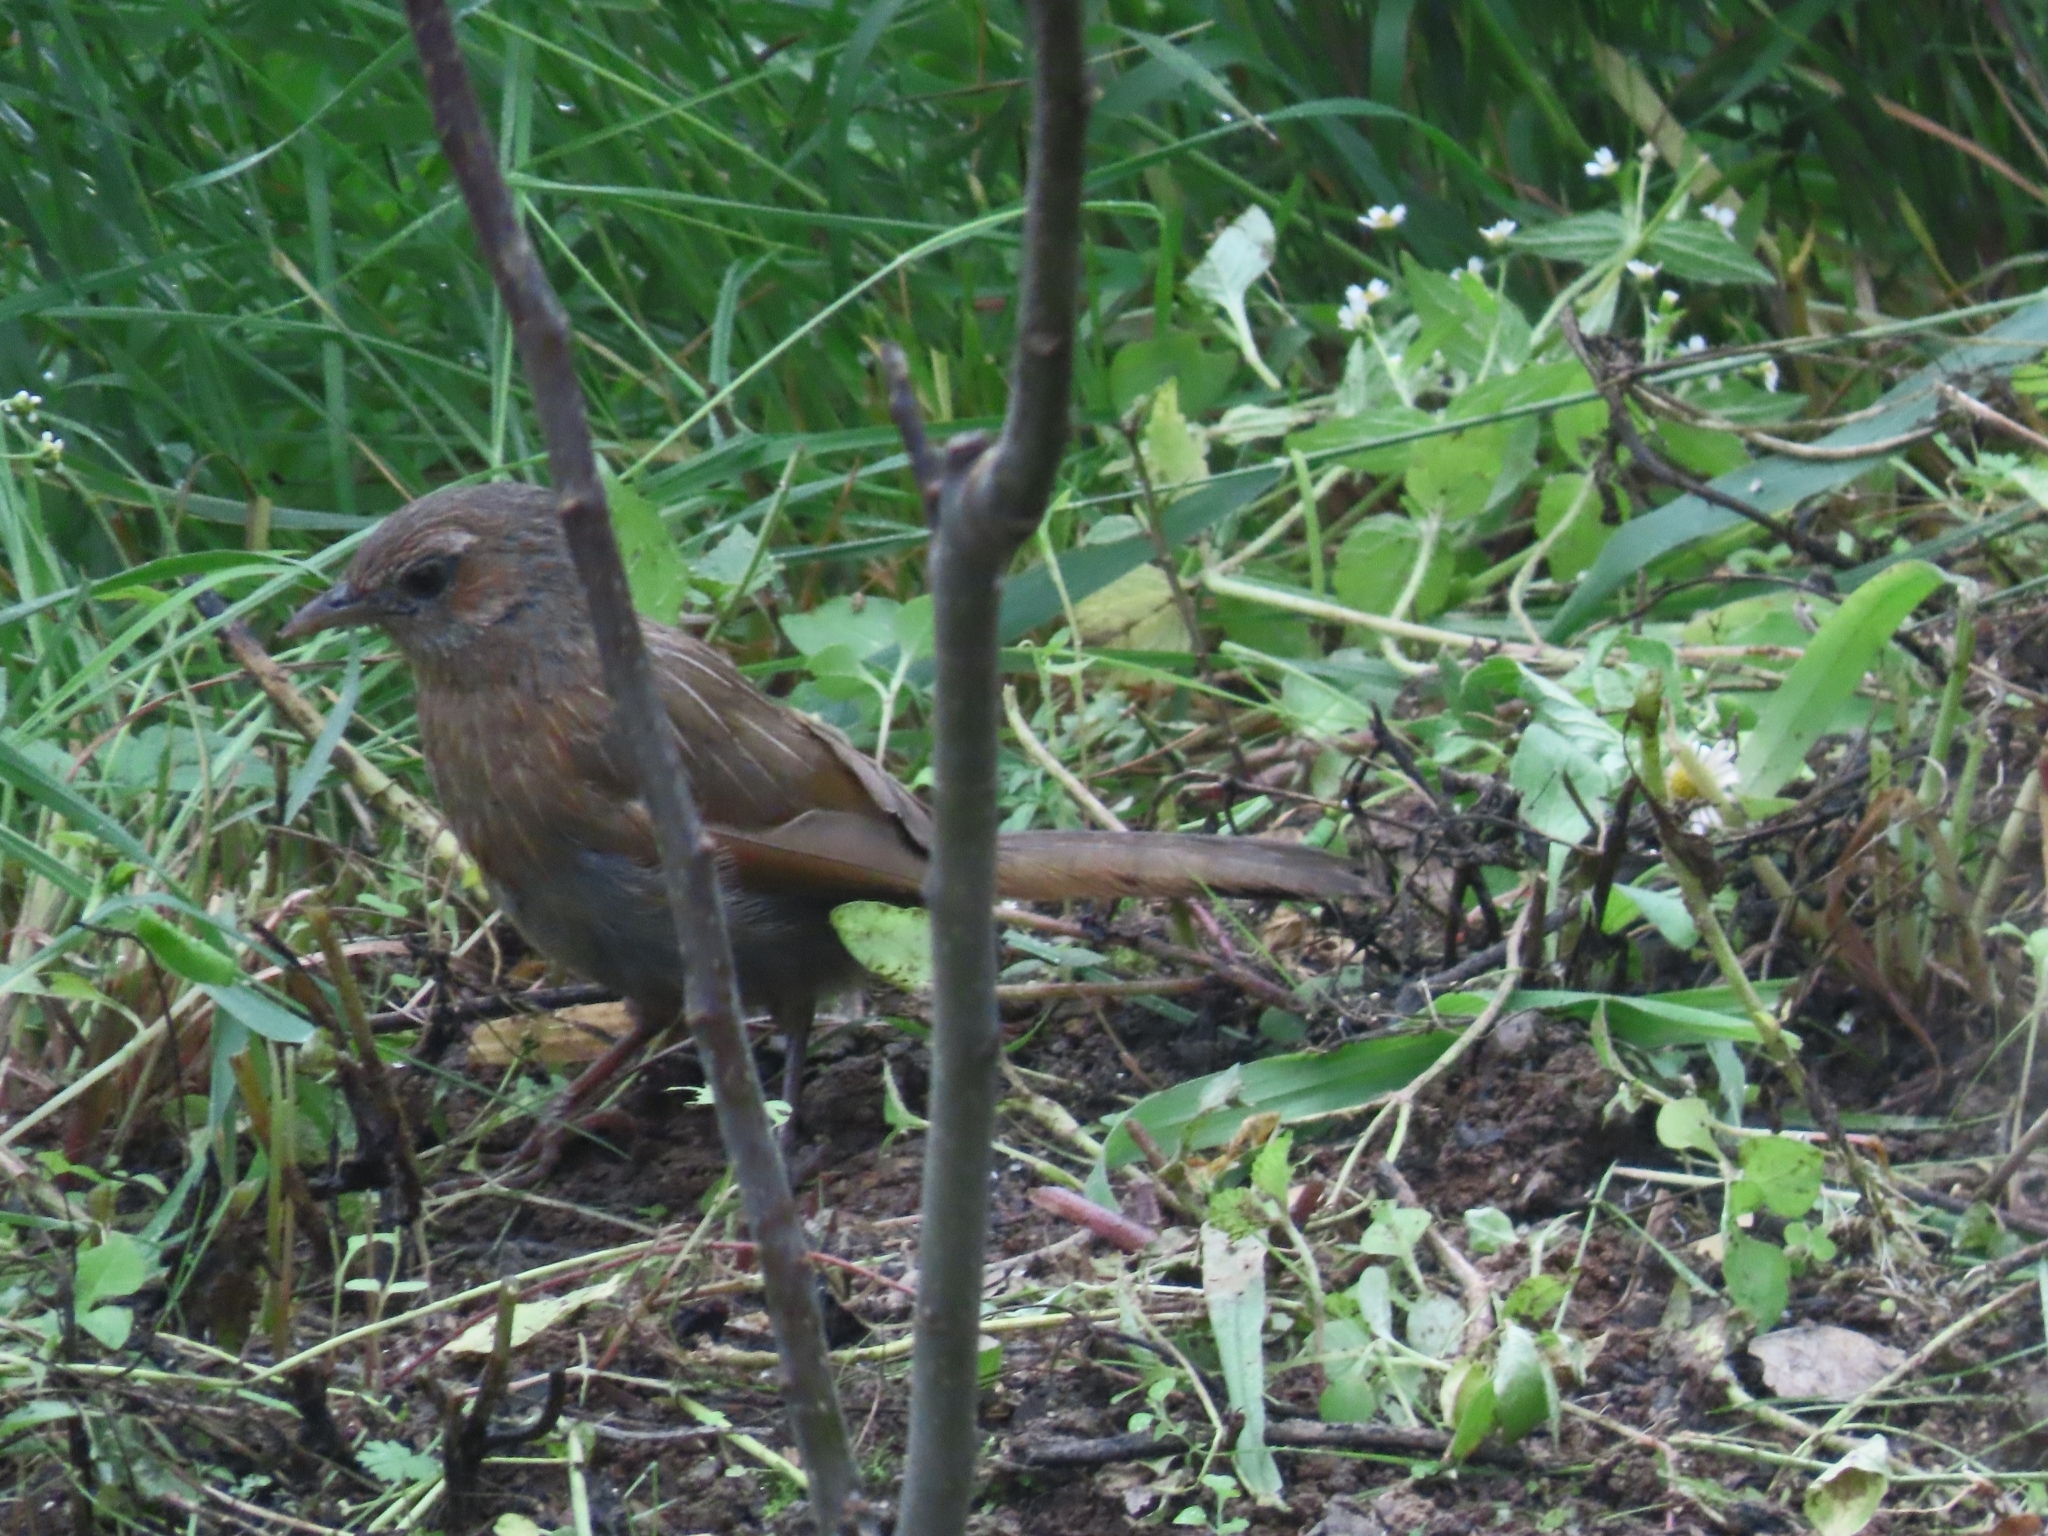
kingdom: Animalia
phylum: Chordata
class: Aves
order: Passeriformes
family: Leiothrichidae
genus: Trochalopteron
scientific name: Trochalopteron lineatum
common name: Streaked laughingthrush
